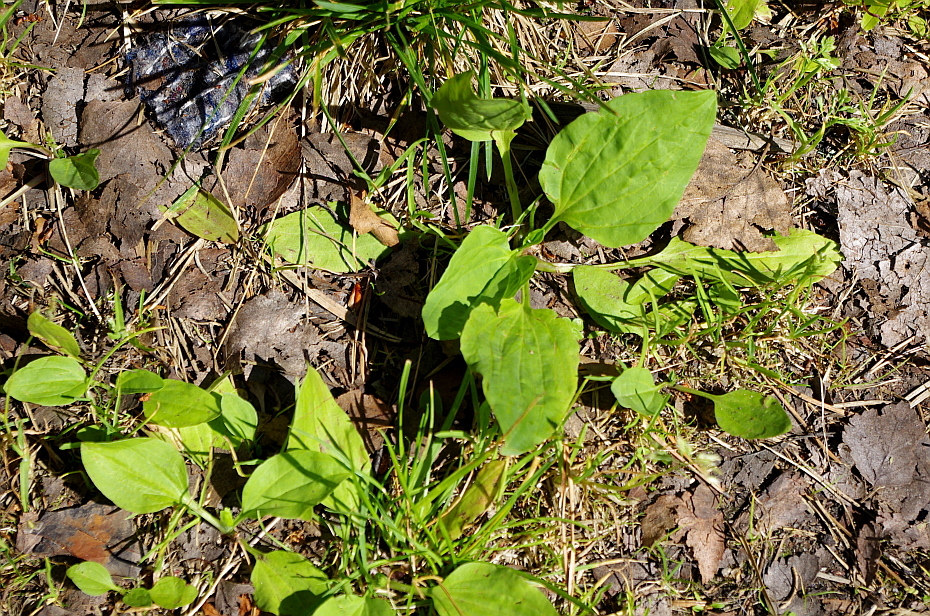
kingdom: Plantae
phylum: Tracheophyta
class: Magnoliopsida
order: Lamiales
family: Plantaginaceae
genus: Plantago
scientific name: Plantago major
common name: Common plantain
